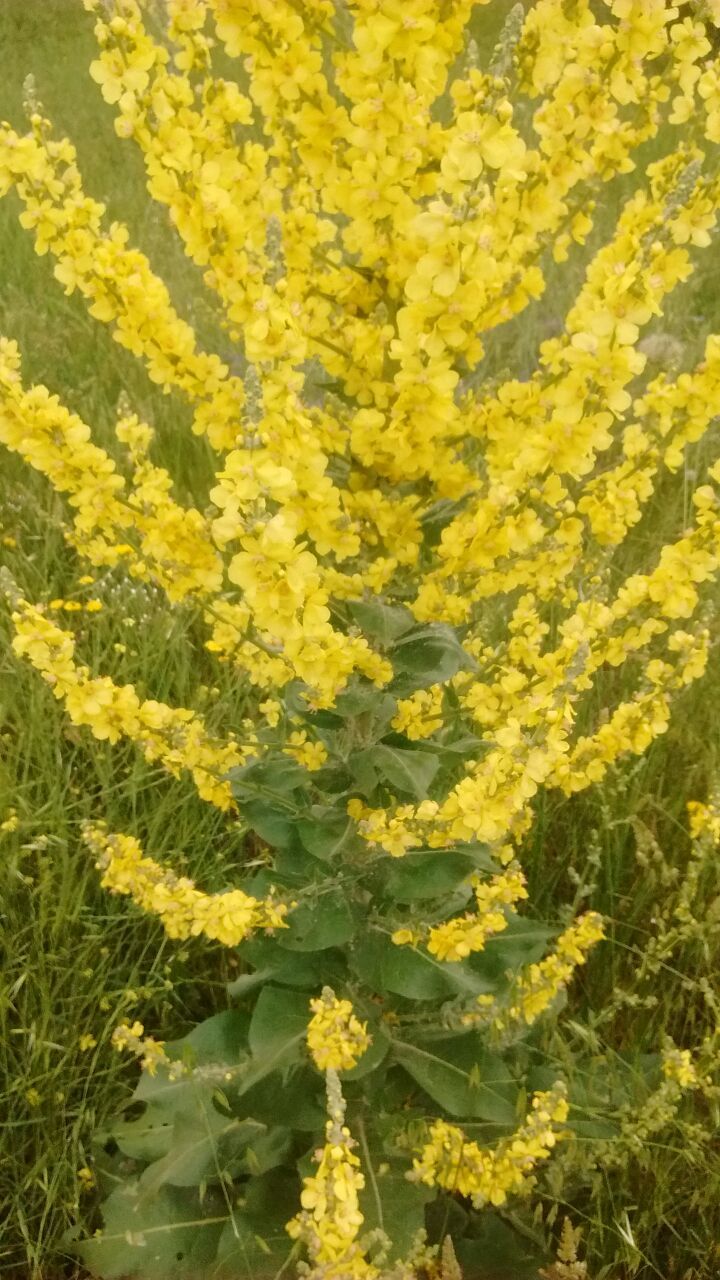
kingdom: Plantae
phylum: Tracheophyta
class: Magnoliopsida
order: Lamiales
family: Scrophulariaceae
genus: Verbascum
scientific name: Verbascum pulverulentum
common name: Broad-leaf mullein
